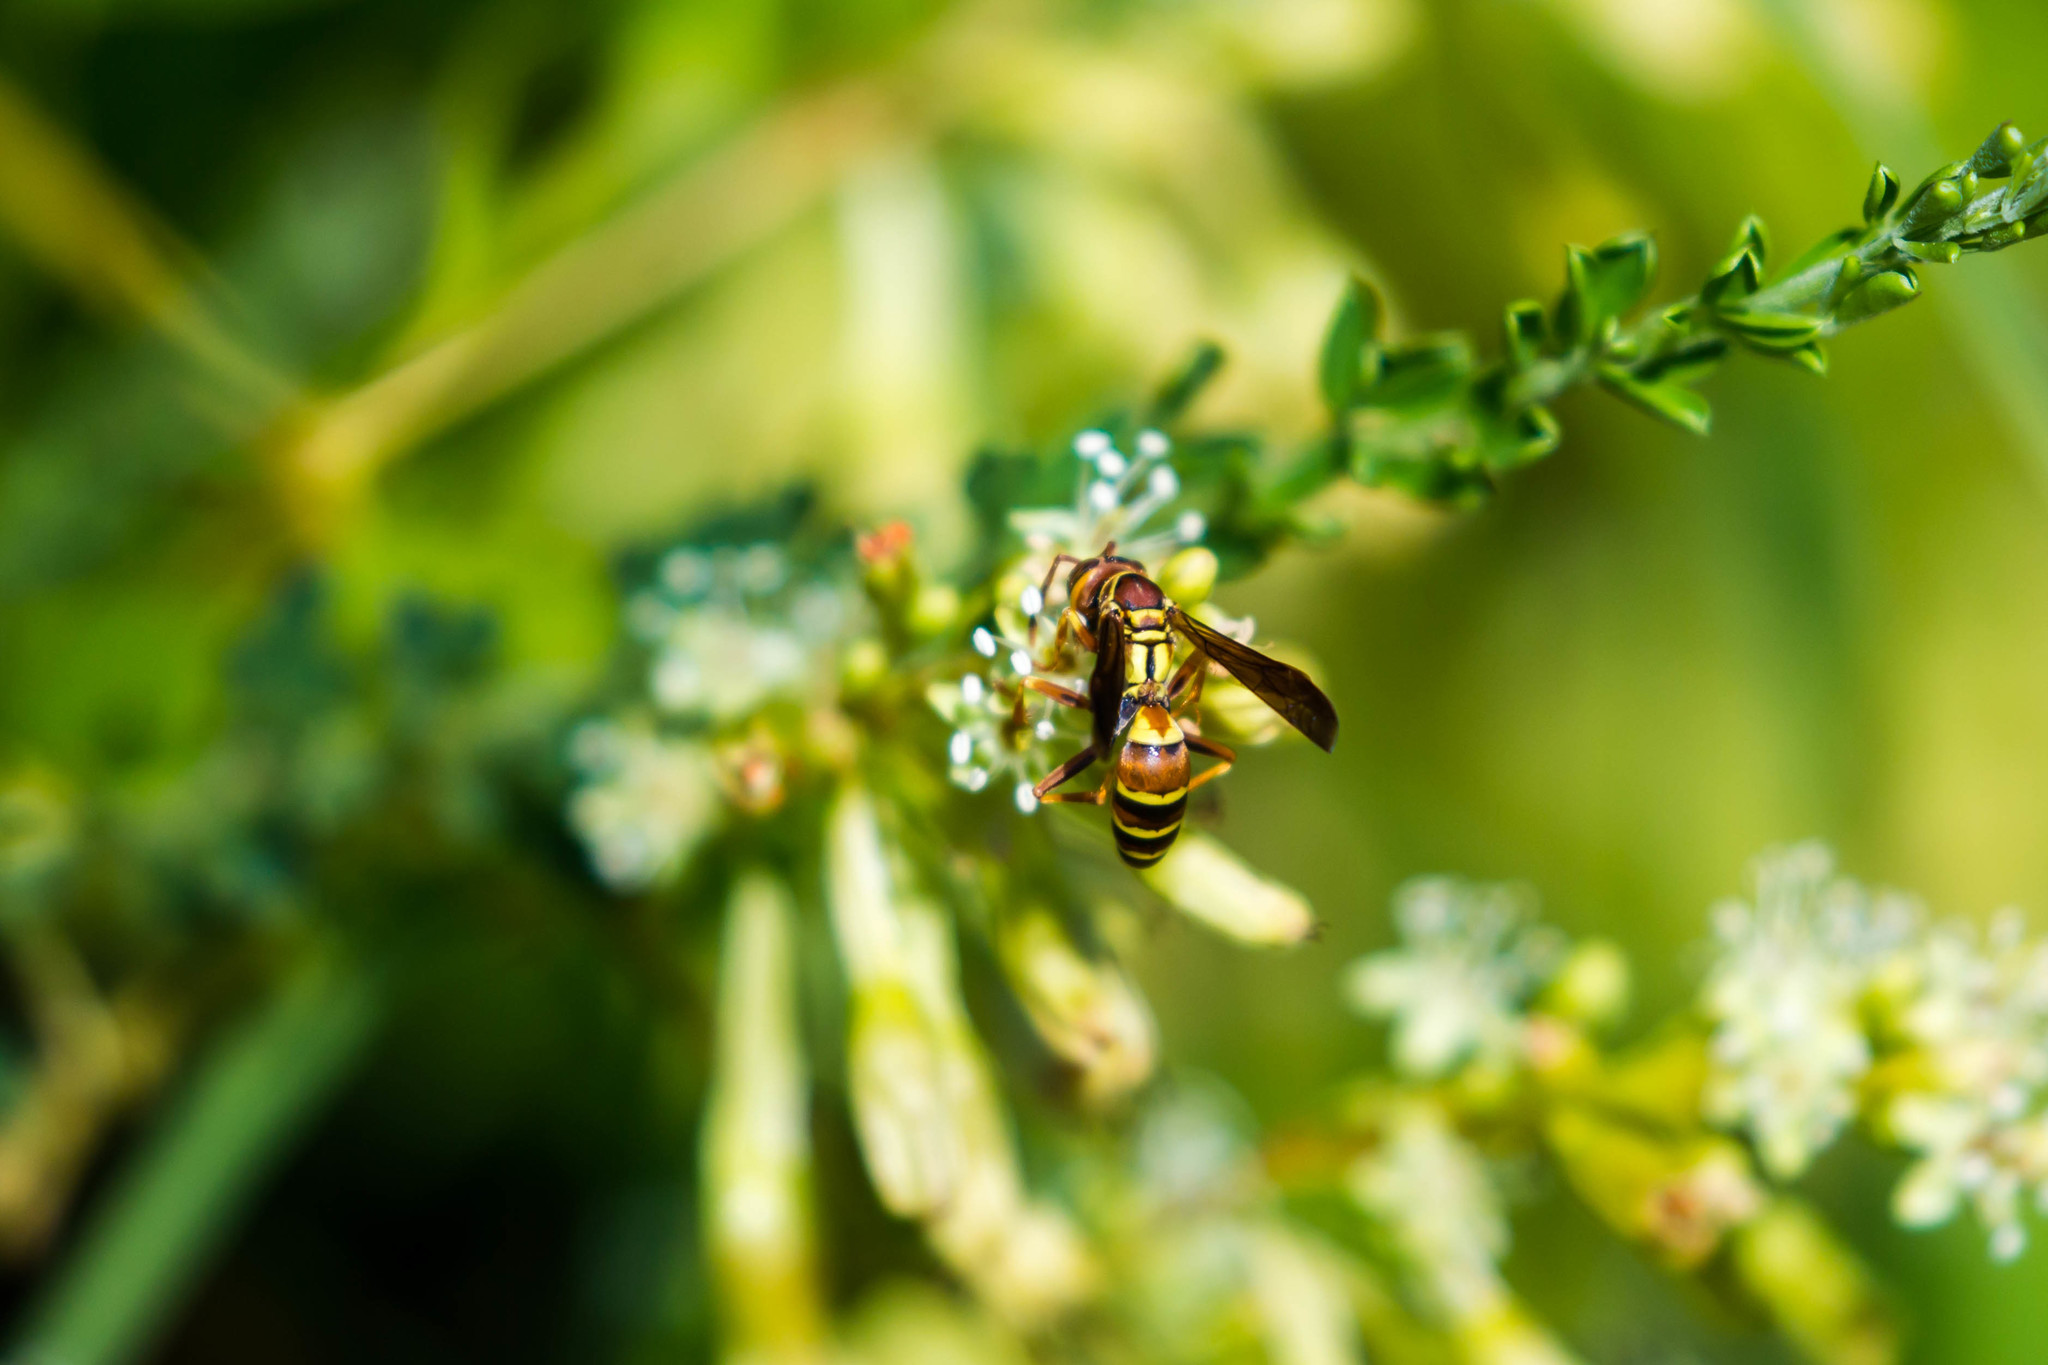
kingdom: Animalia
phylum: Arthropoda
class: Insecta
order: Hymenoptera
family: Eumenidae
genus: Polistes
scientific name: Polistes dorsalis
